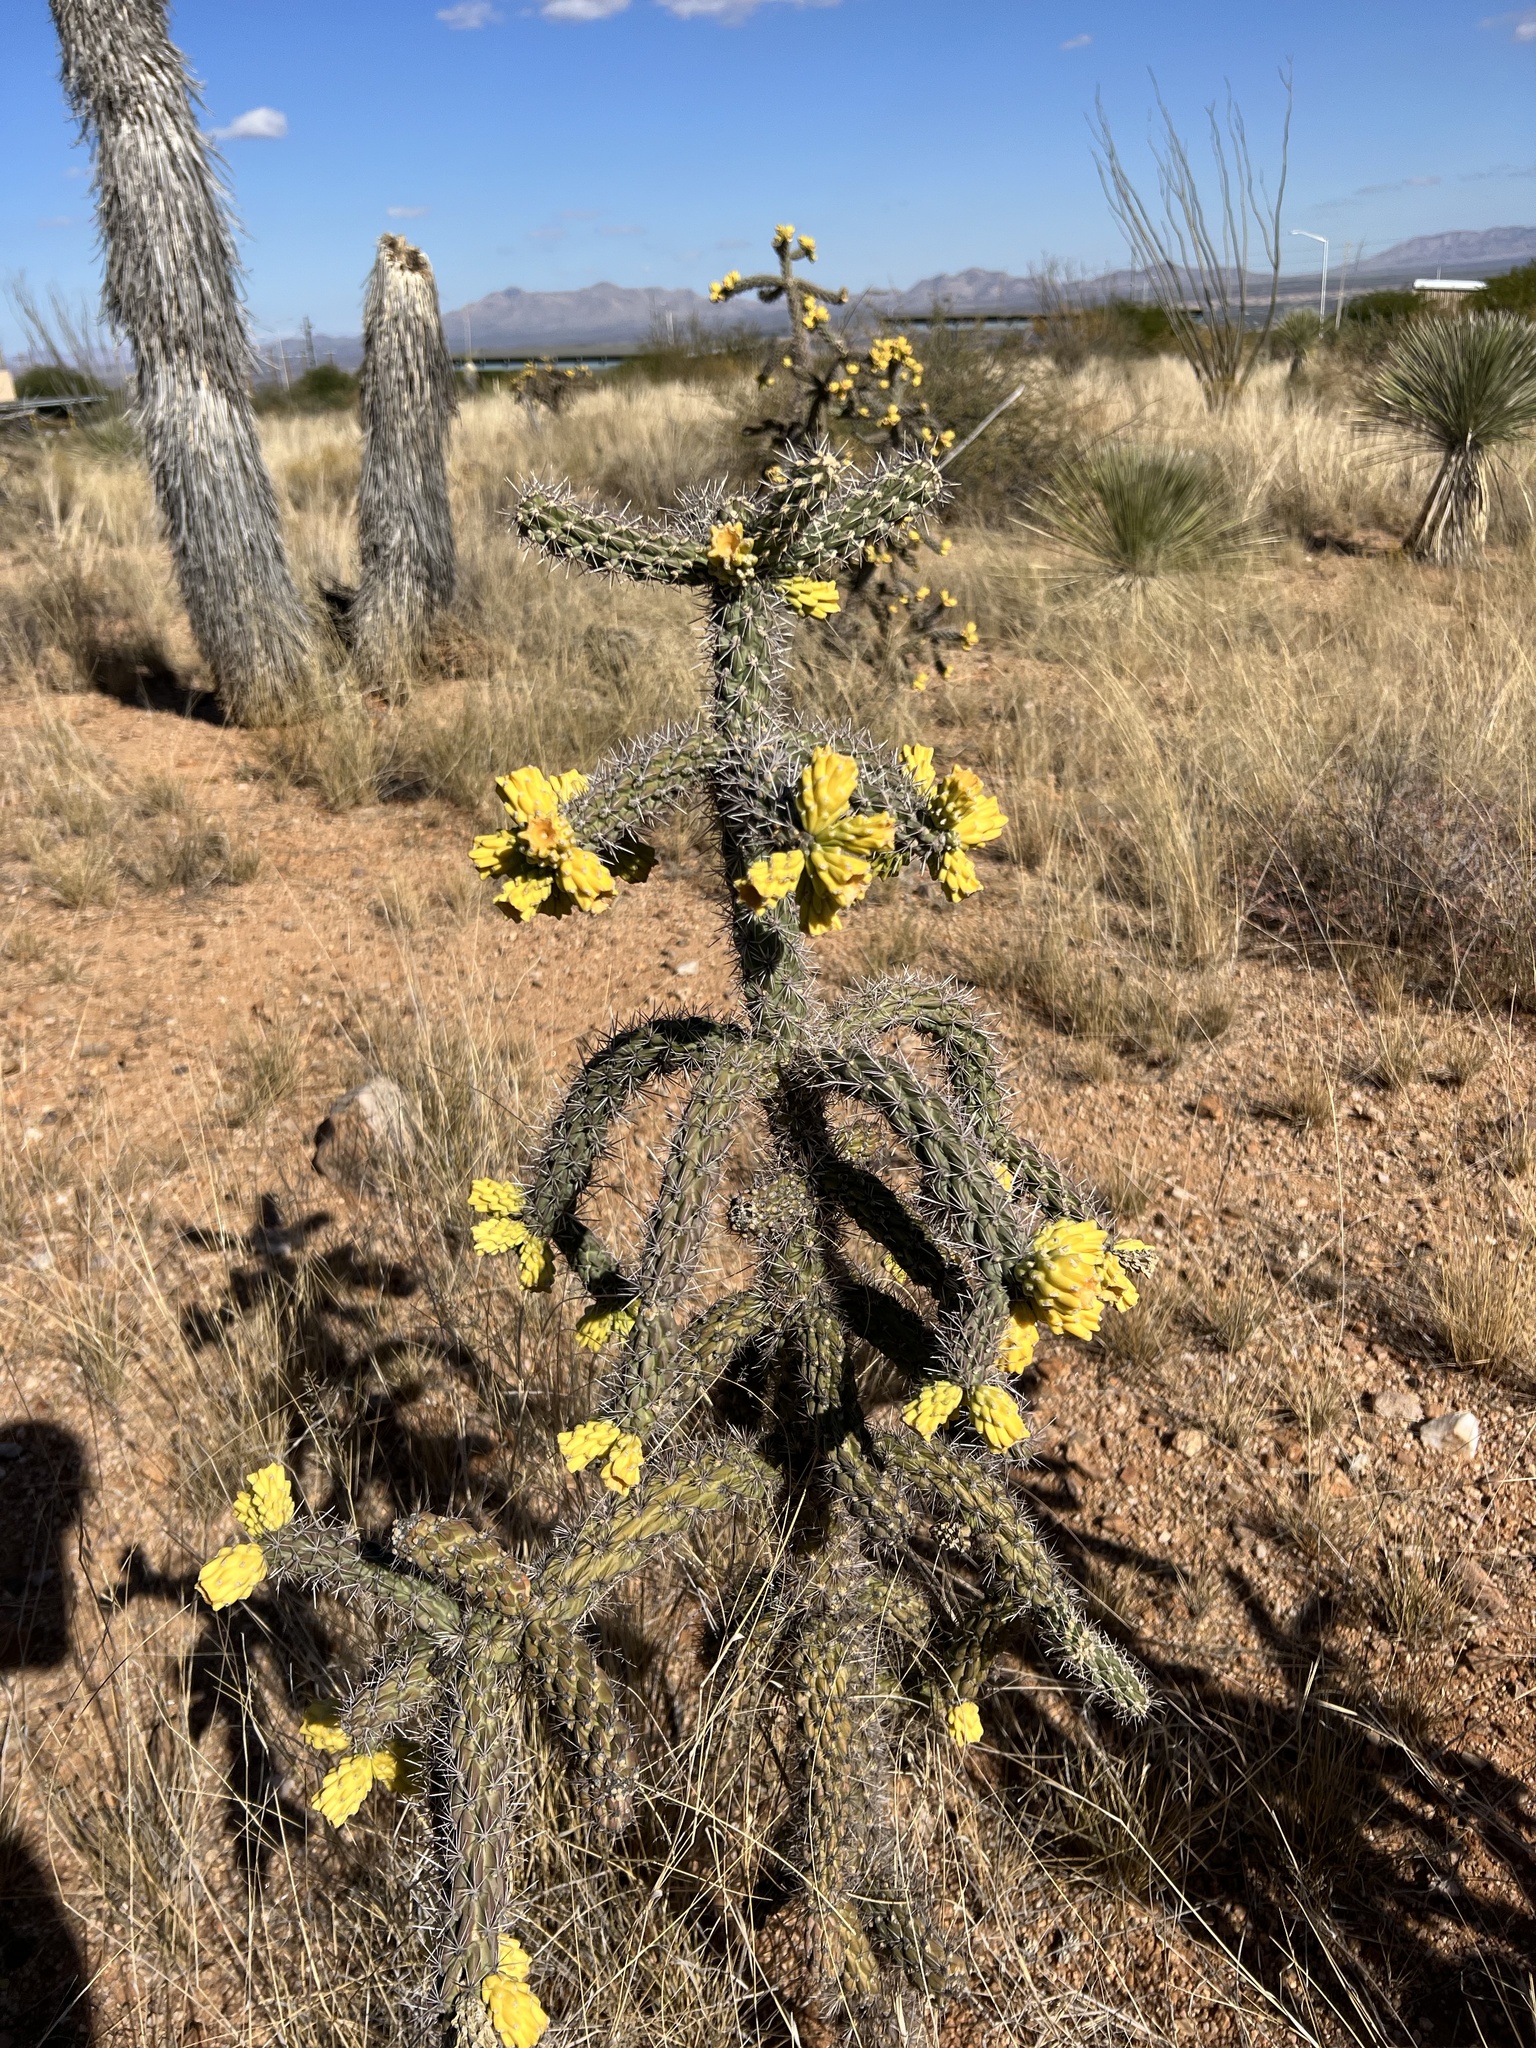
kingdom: Plantae
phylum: Tracheophyta
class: Magnoliopsida
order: Caryophyllales
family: Cactaceae
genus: Cylindropuntia
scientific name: Cylindropuntia imbricata
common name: Candelabrum cactus
